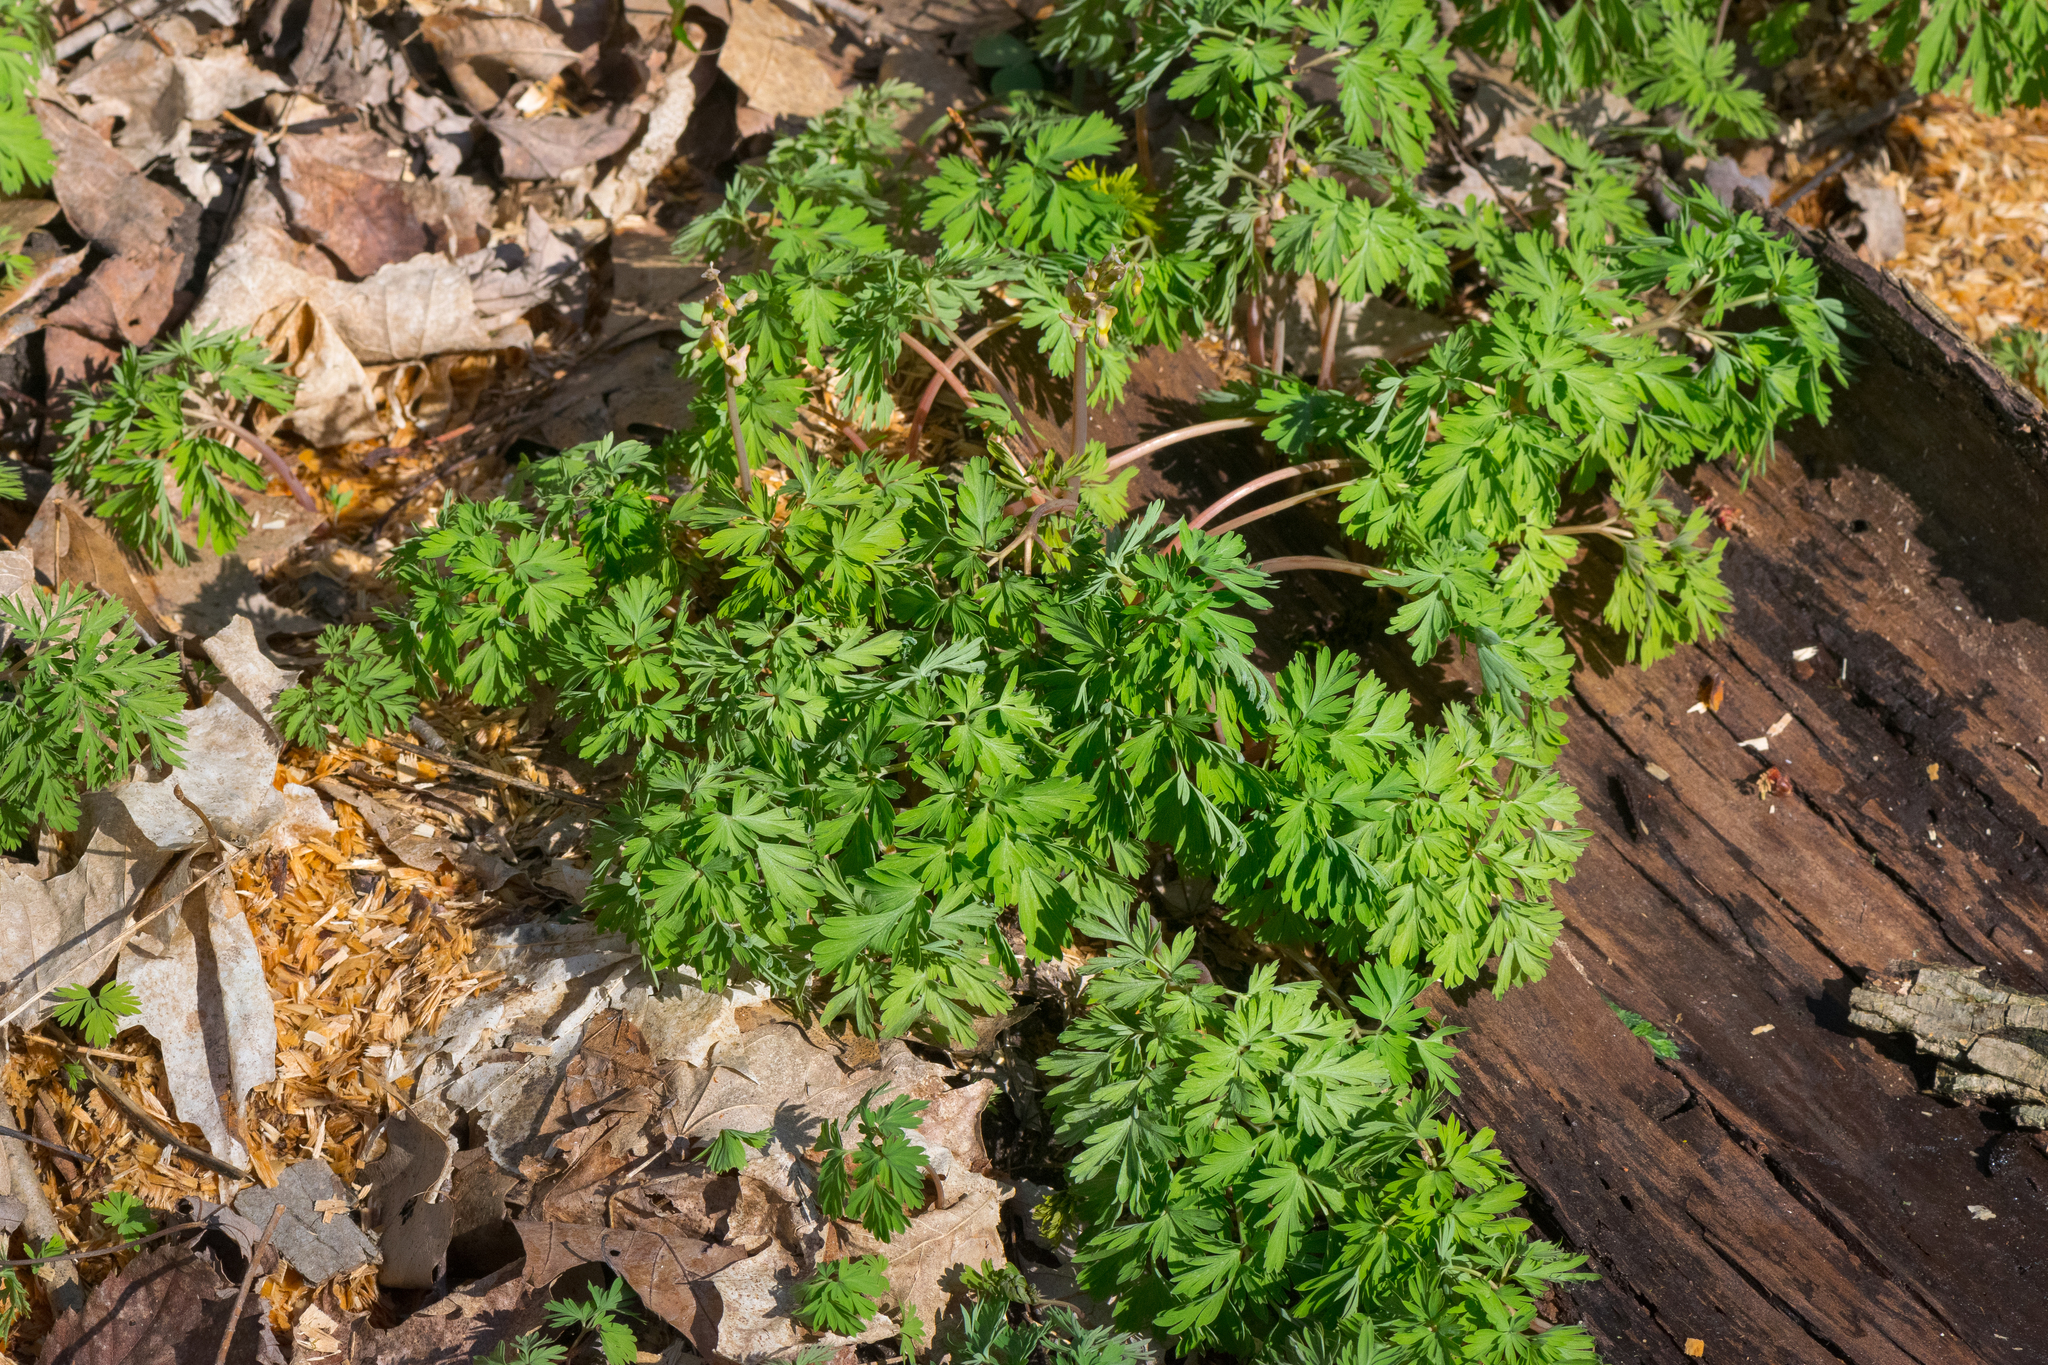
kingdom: Plantae
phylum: Tracheophyta
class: Magnoliopsida
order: Ranunculales
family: Papaveraceae
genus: Dicentra
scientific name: Dicentra cucullaria
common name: Dutchman's breeches
